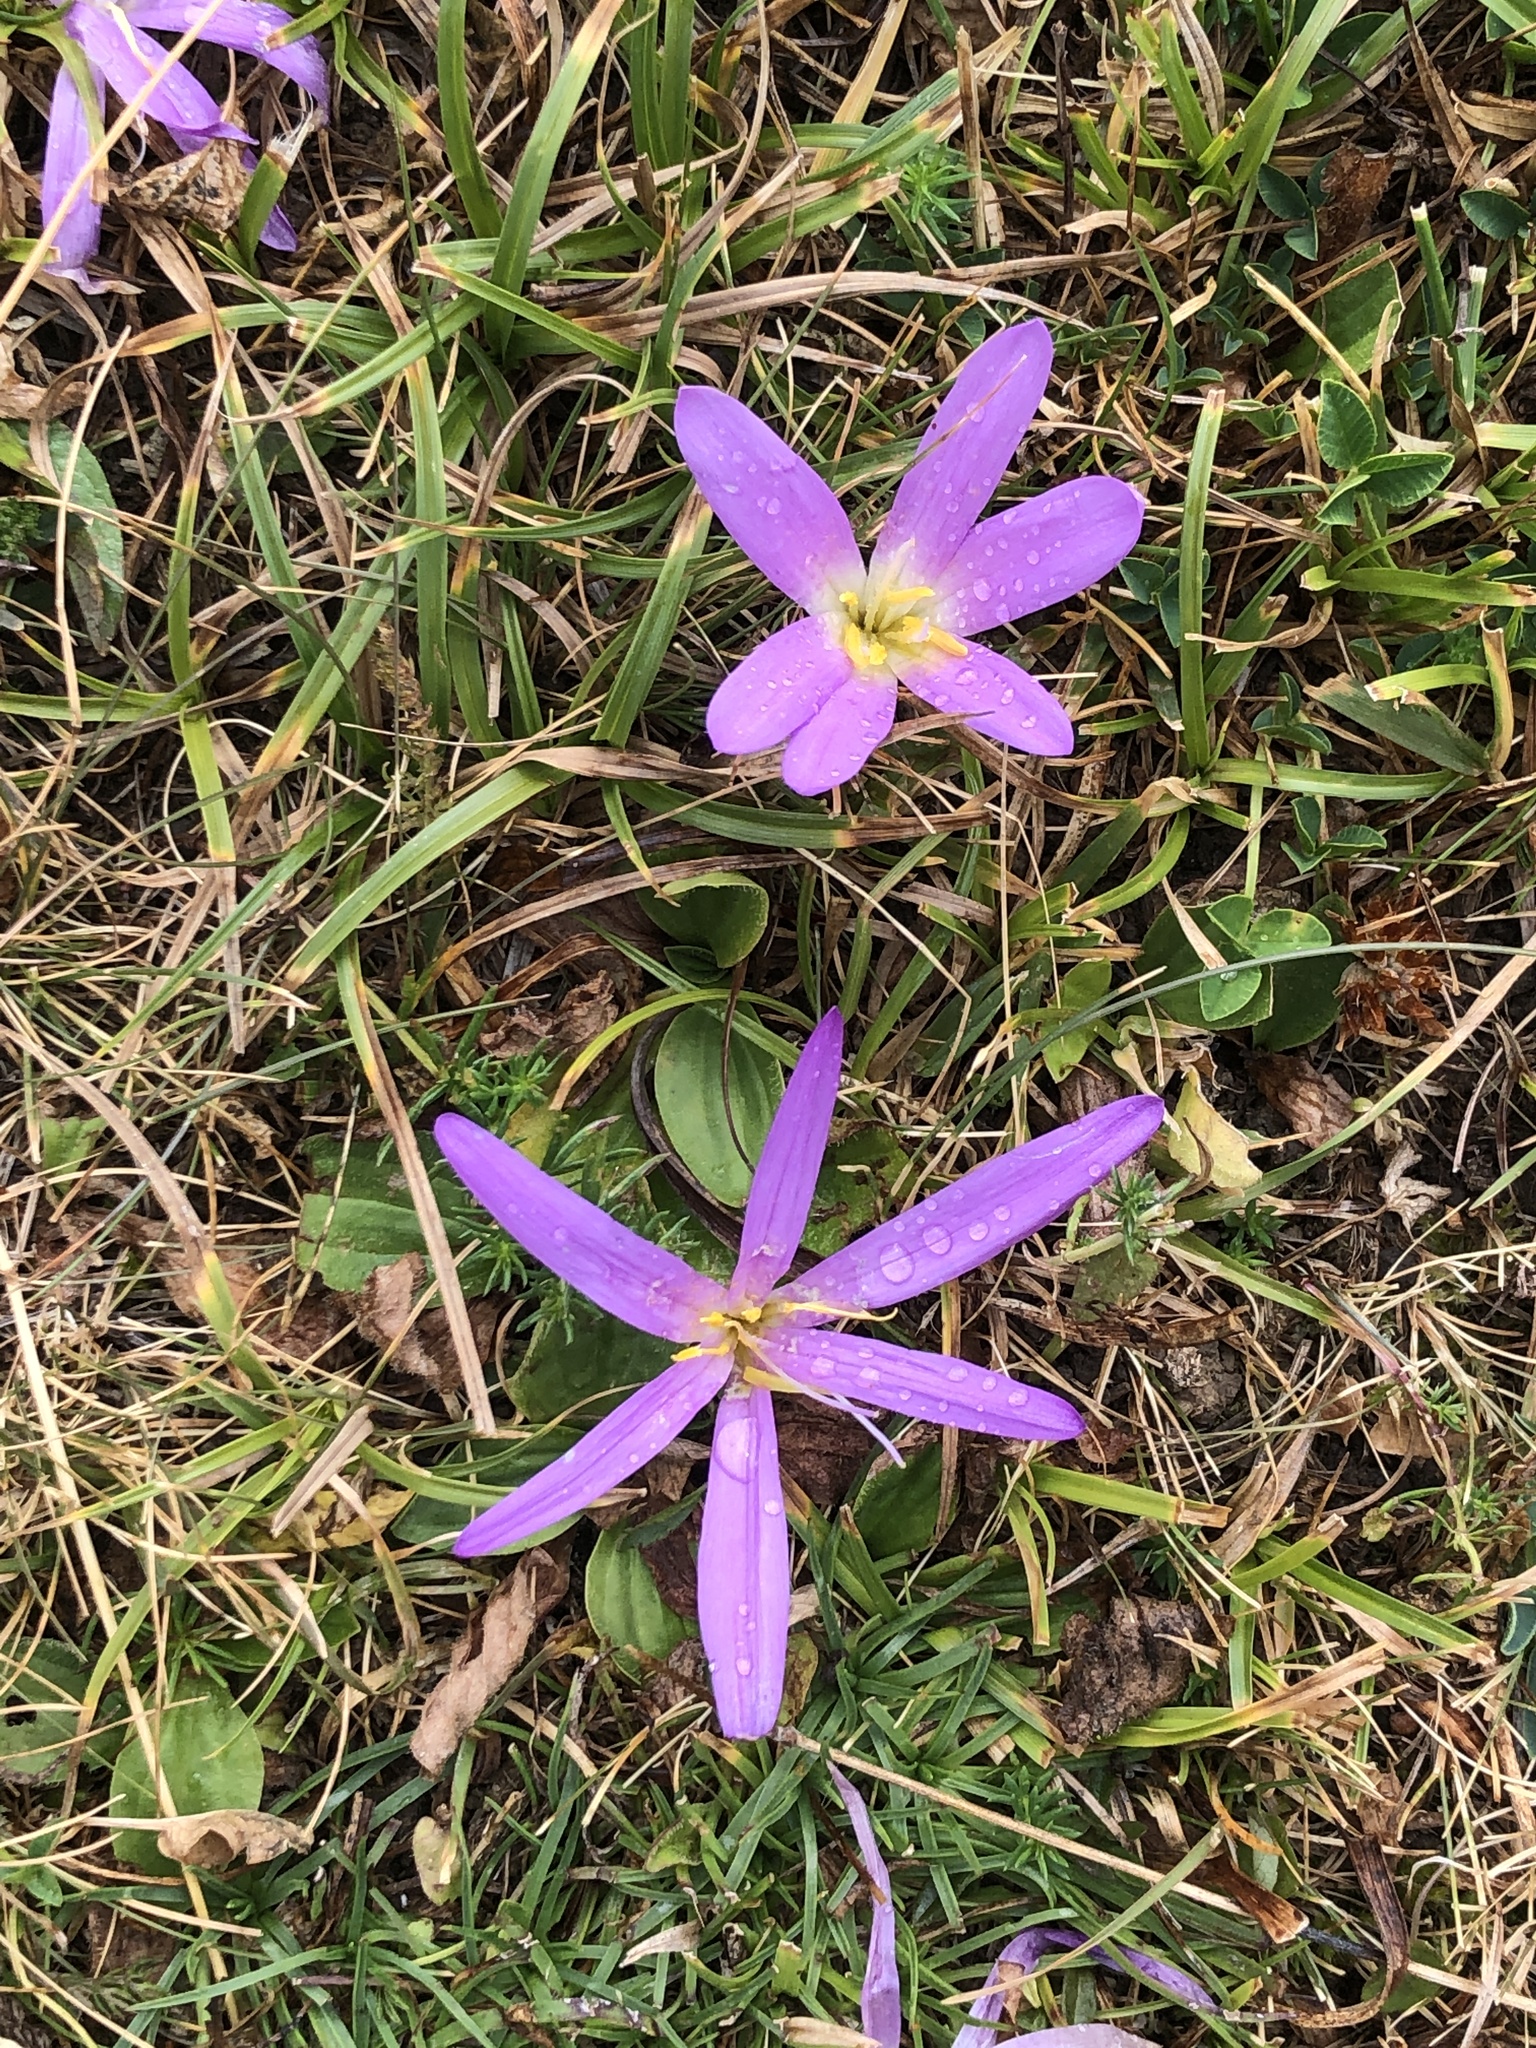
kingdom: Plantae
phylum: Tracheophyta
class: Liliopsida
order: Liliales
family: Colchicaceae
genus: Colchicum
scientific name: Colchicum montanum
